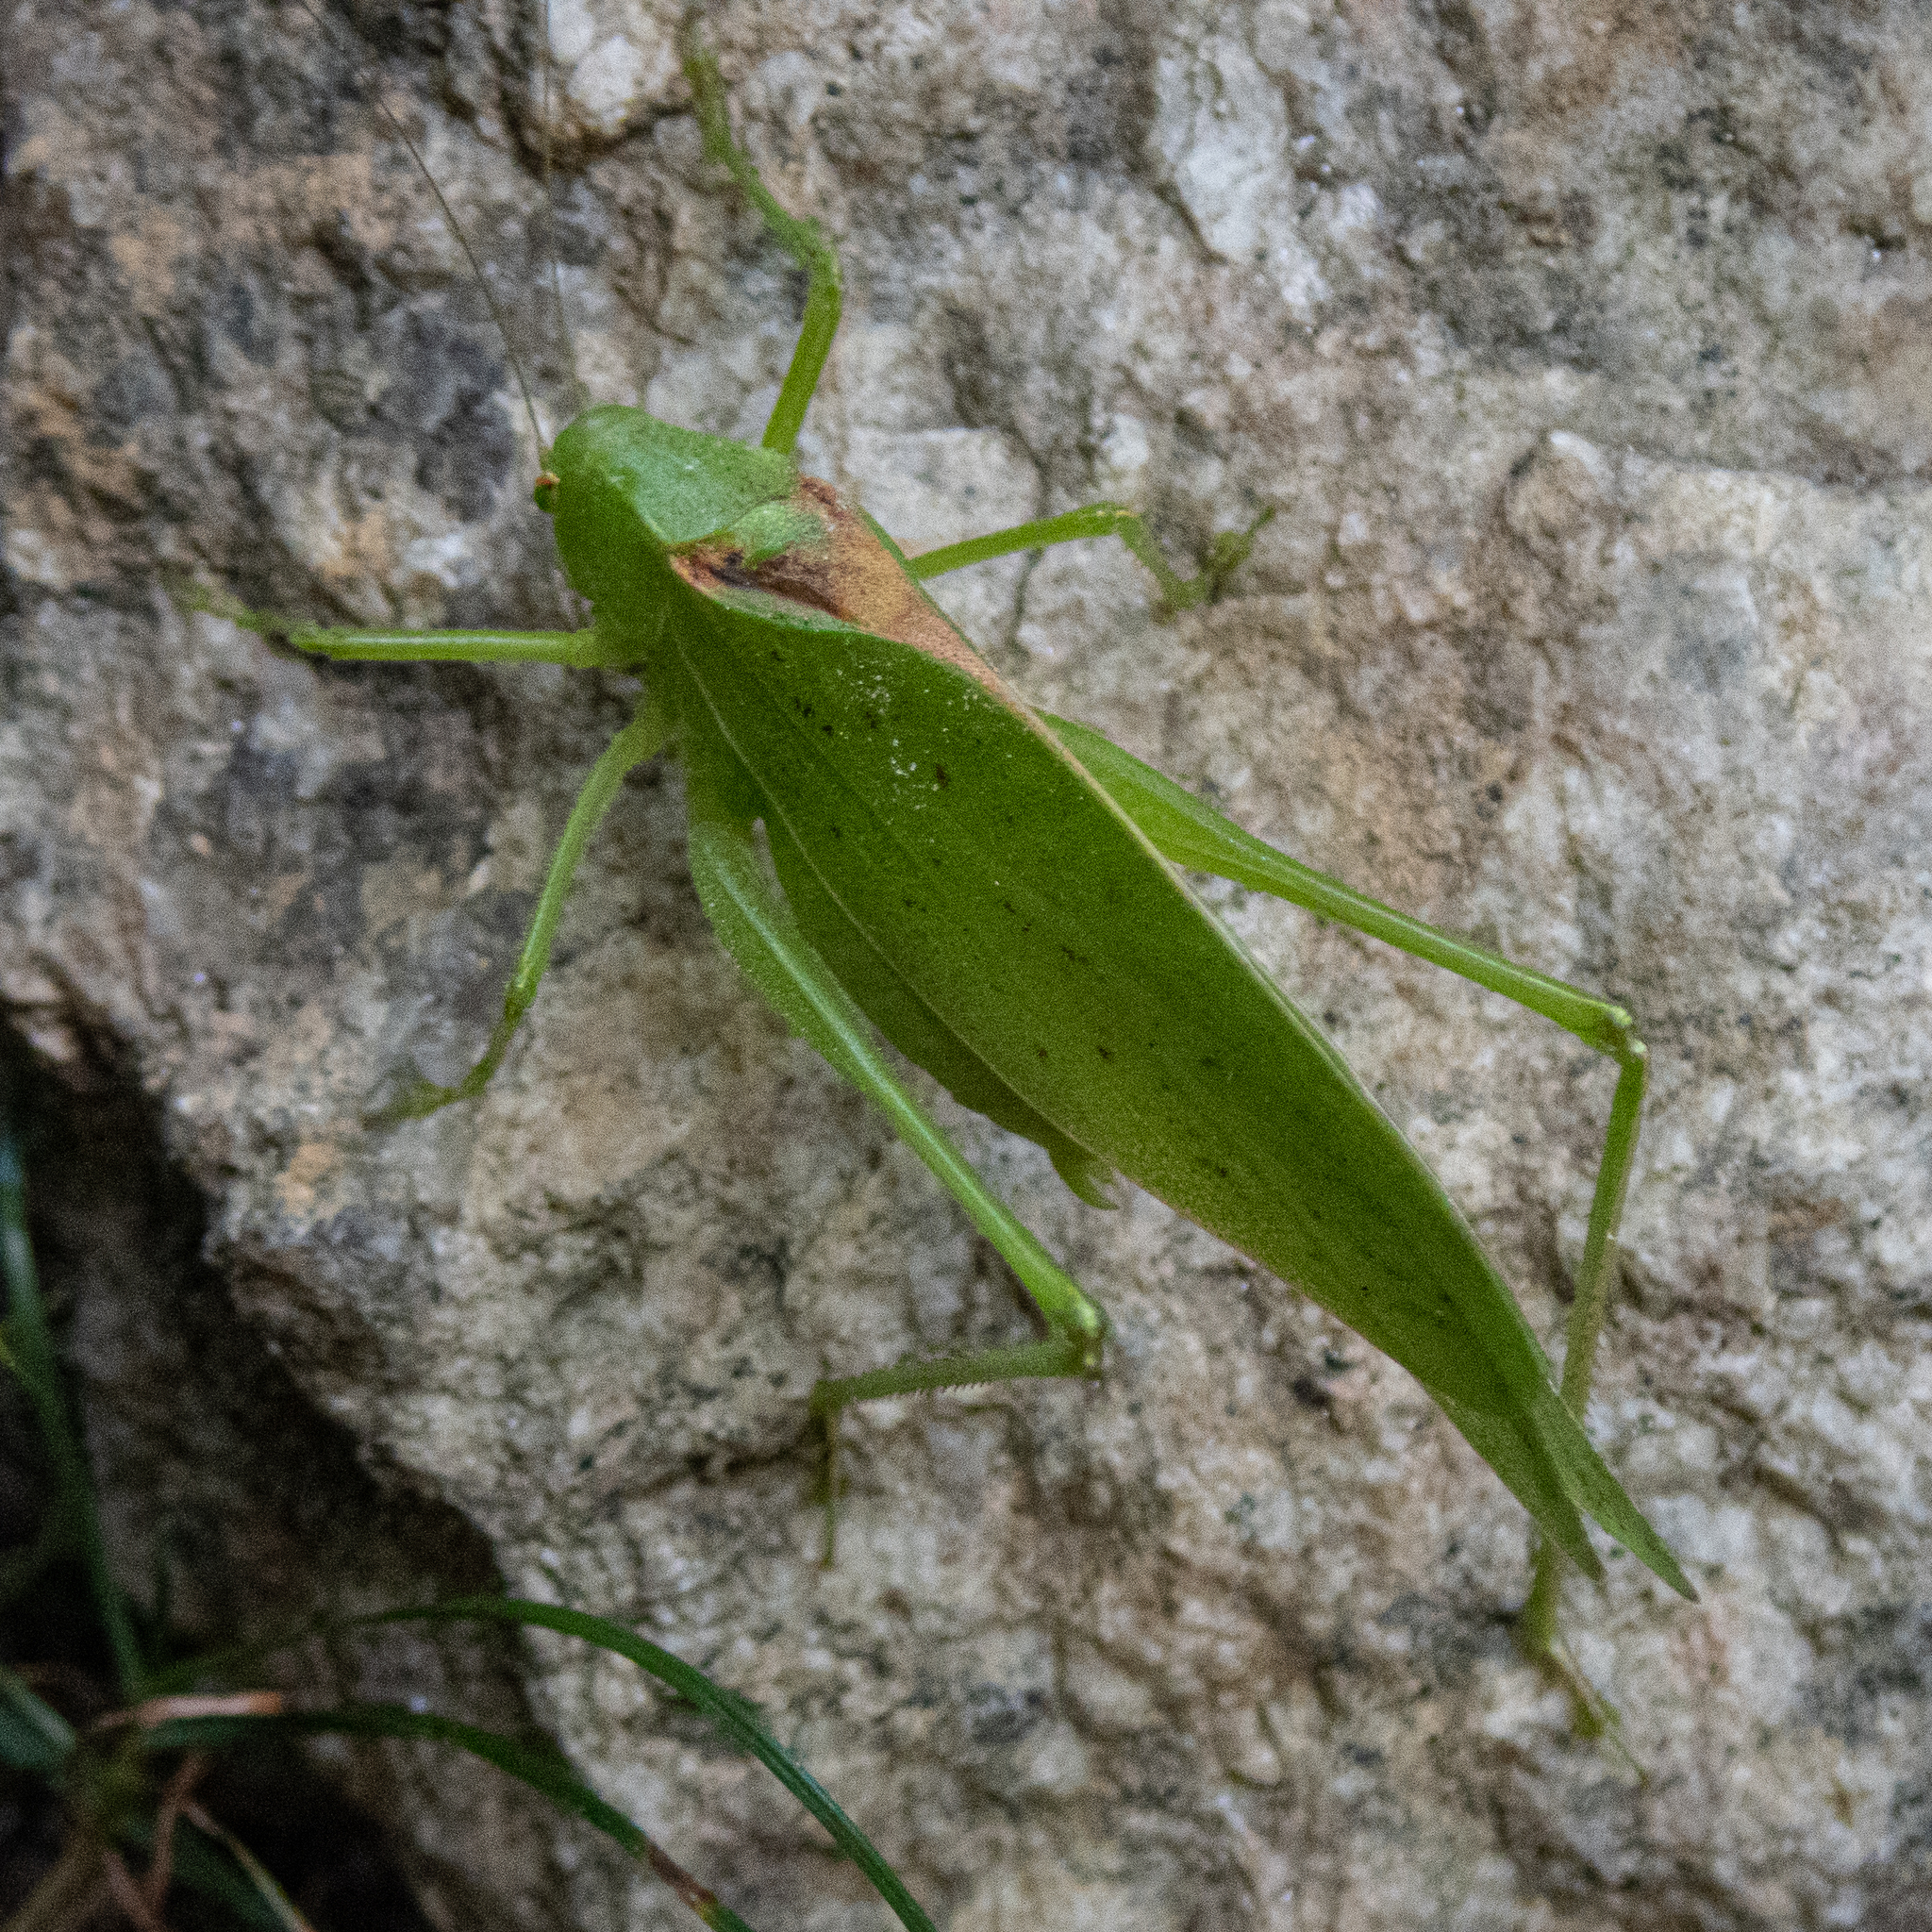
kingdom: Animalia
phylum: Arthropoda
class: Insecta
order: Orthoptera
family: Tettigoniidae
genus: Amblycorypha
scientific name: Amblycorypha rotundifolia
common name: Rattler round-winged katydid
